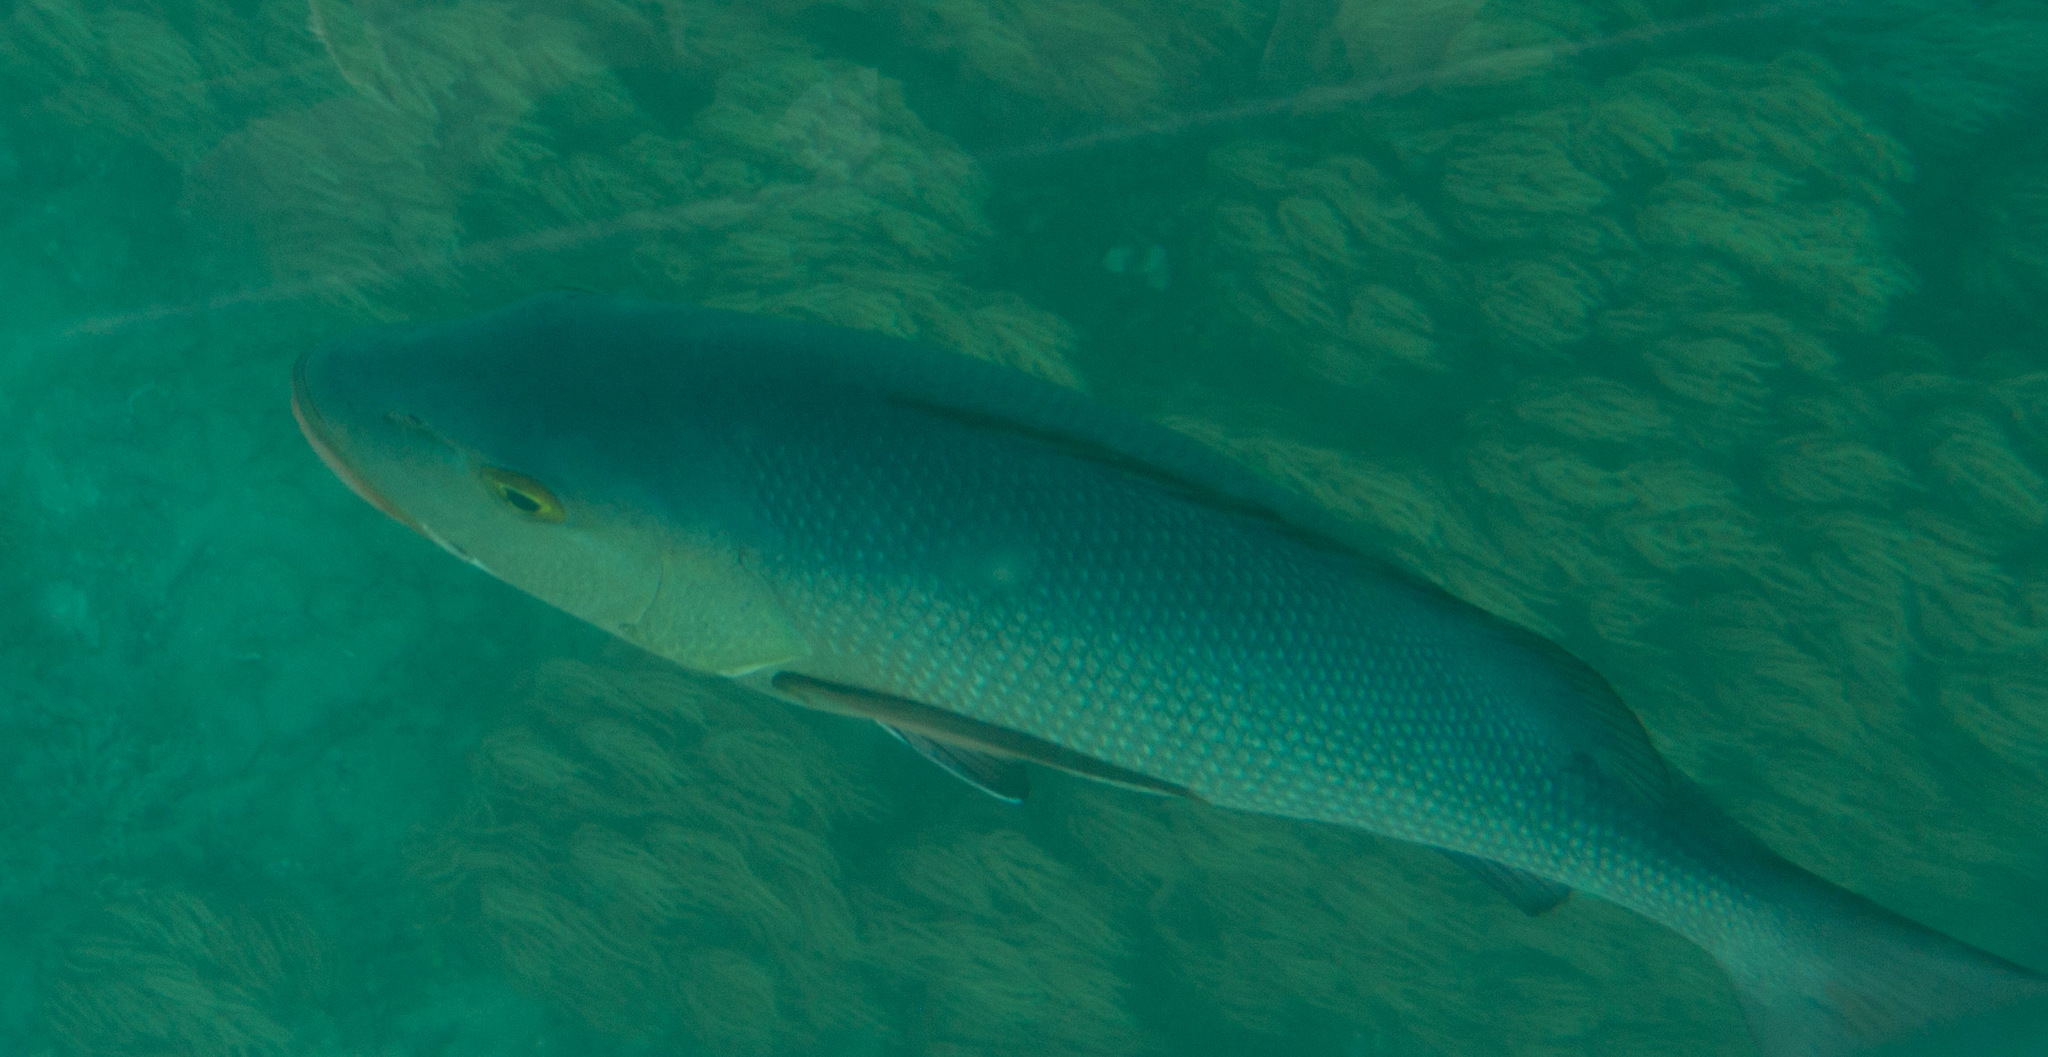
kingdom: Animalia
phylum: Chordata
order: Perciformes
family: Lutjanidae
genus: Lutjanus
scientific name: Lutjanus bohar
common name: Red bass
